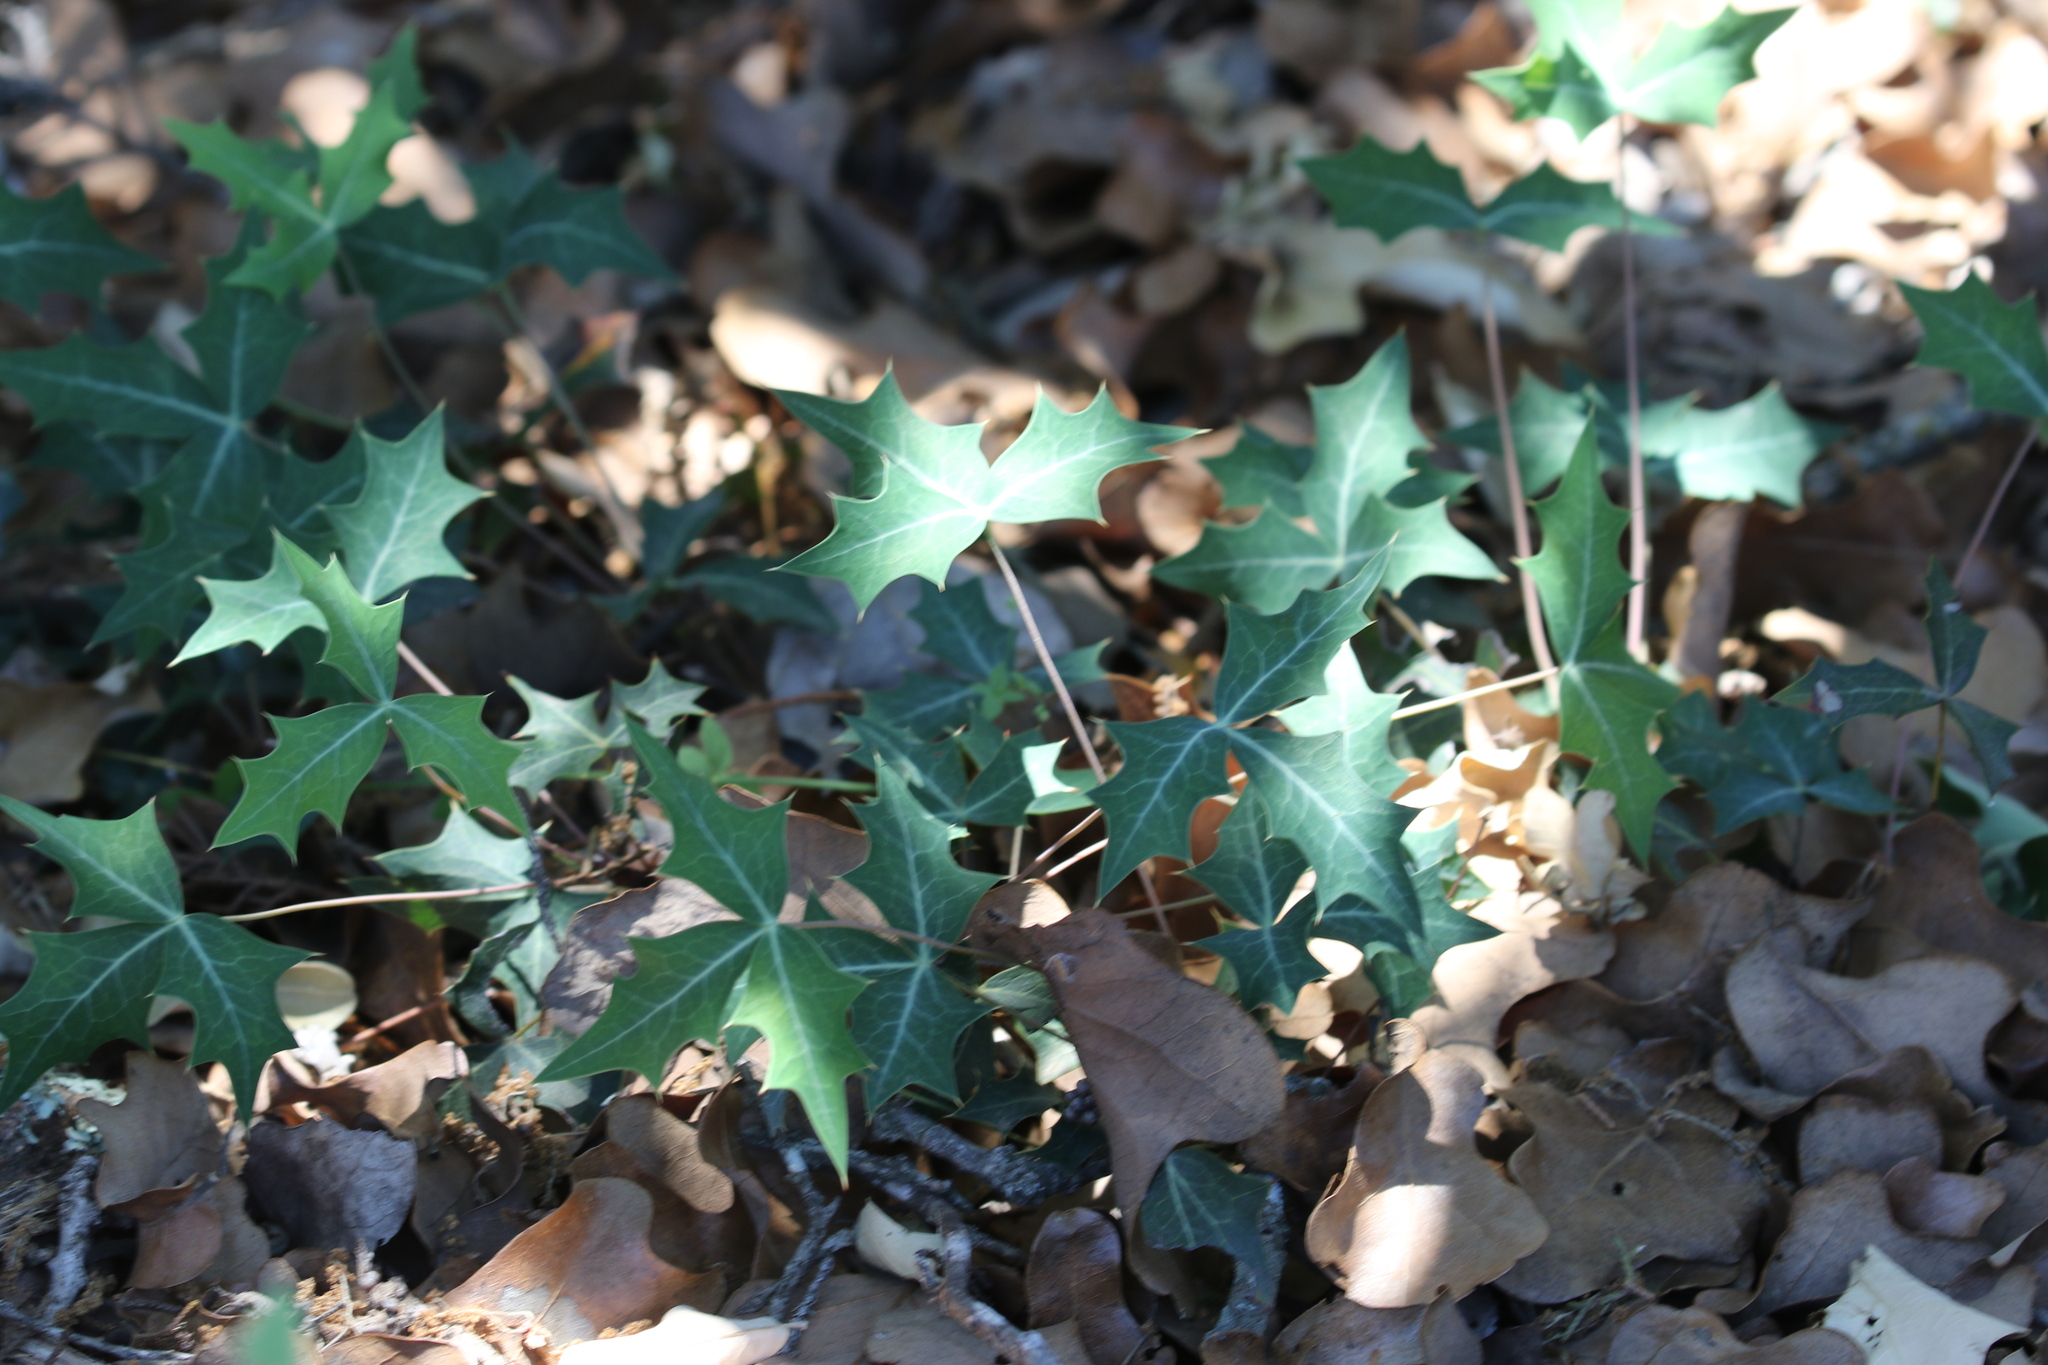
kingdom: Plantae
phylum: Tracheophyta
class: Magnoliopsida
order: Ranunculales
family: Berberidaceae
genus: Alloberberis
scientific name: Alloberberis trifoliolata
